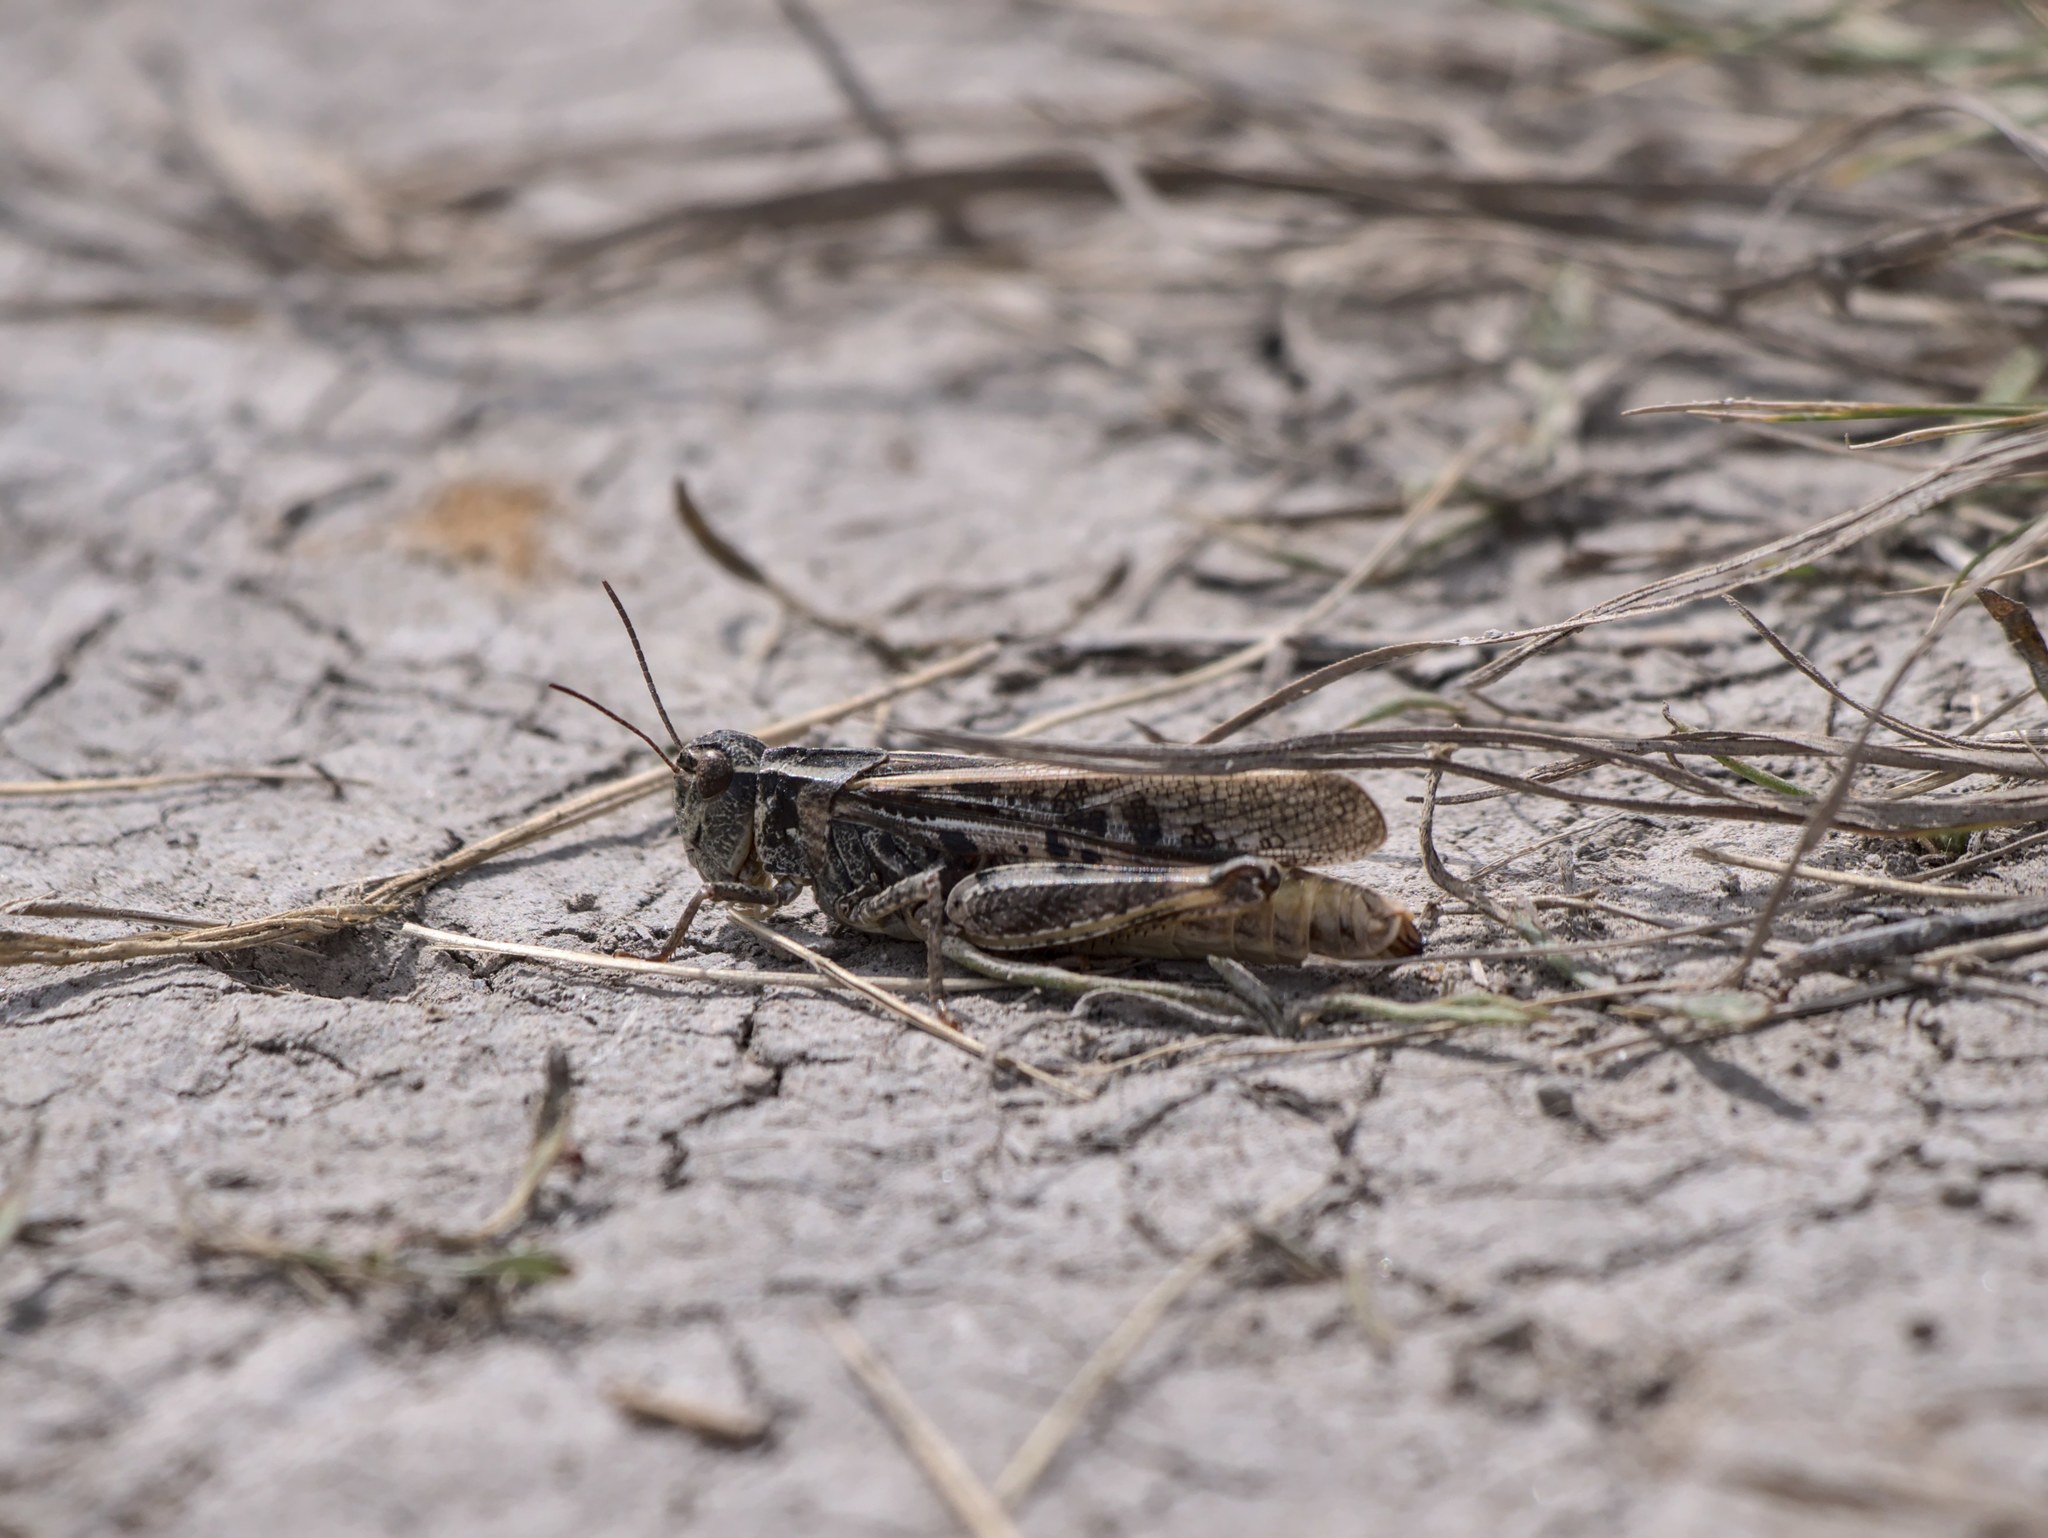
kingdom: Animalia
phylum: Arthropoda
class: Insecta
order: Orthoptera
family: Acrididae
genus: Camnula
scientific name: Camnula pellucida
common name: Clear-winged grasshopper
